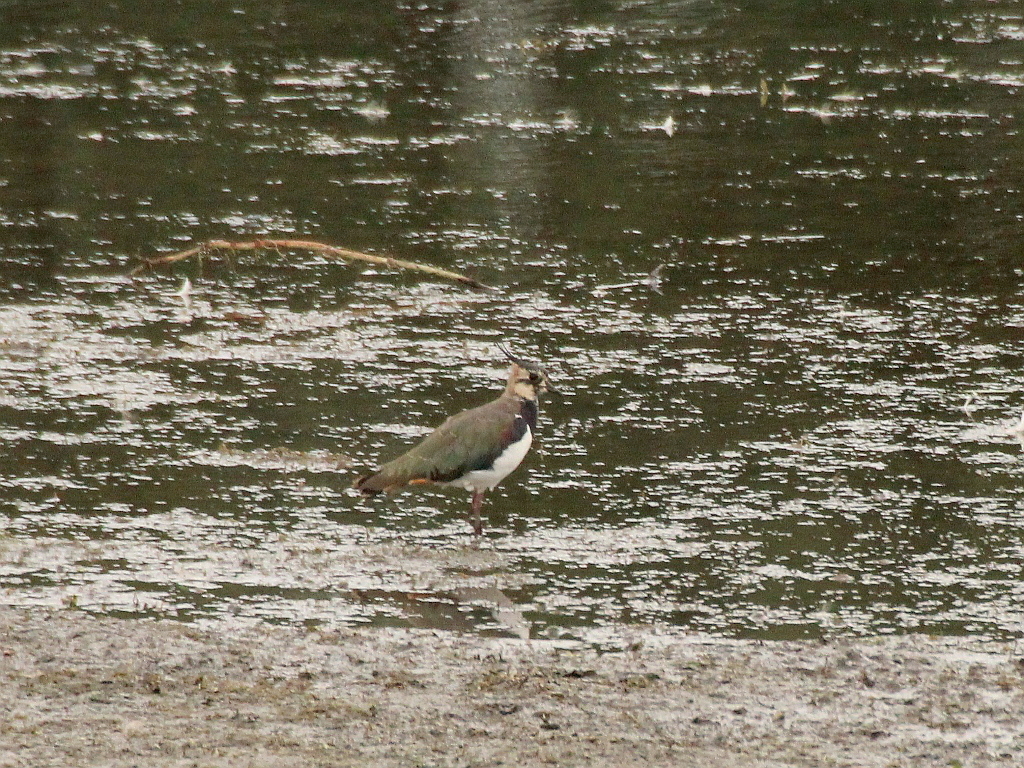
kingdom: Animalia
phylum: Chordata
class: Aves
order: Charadriiformes
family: Charadriidae
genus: Vanellus
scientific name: Vanellus vanellus
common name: Northern lapwing
